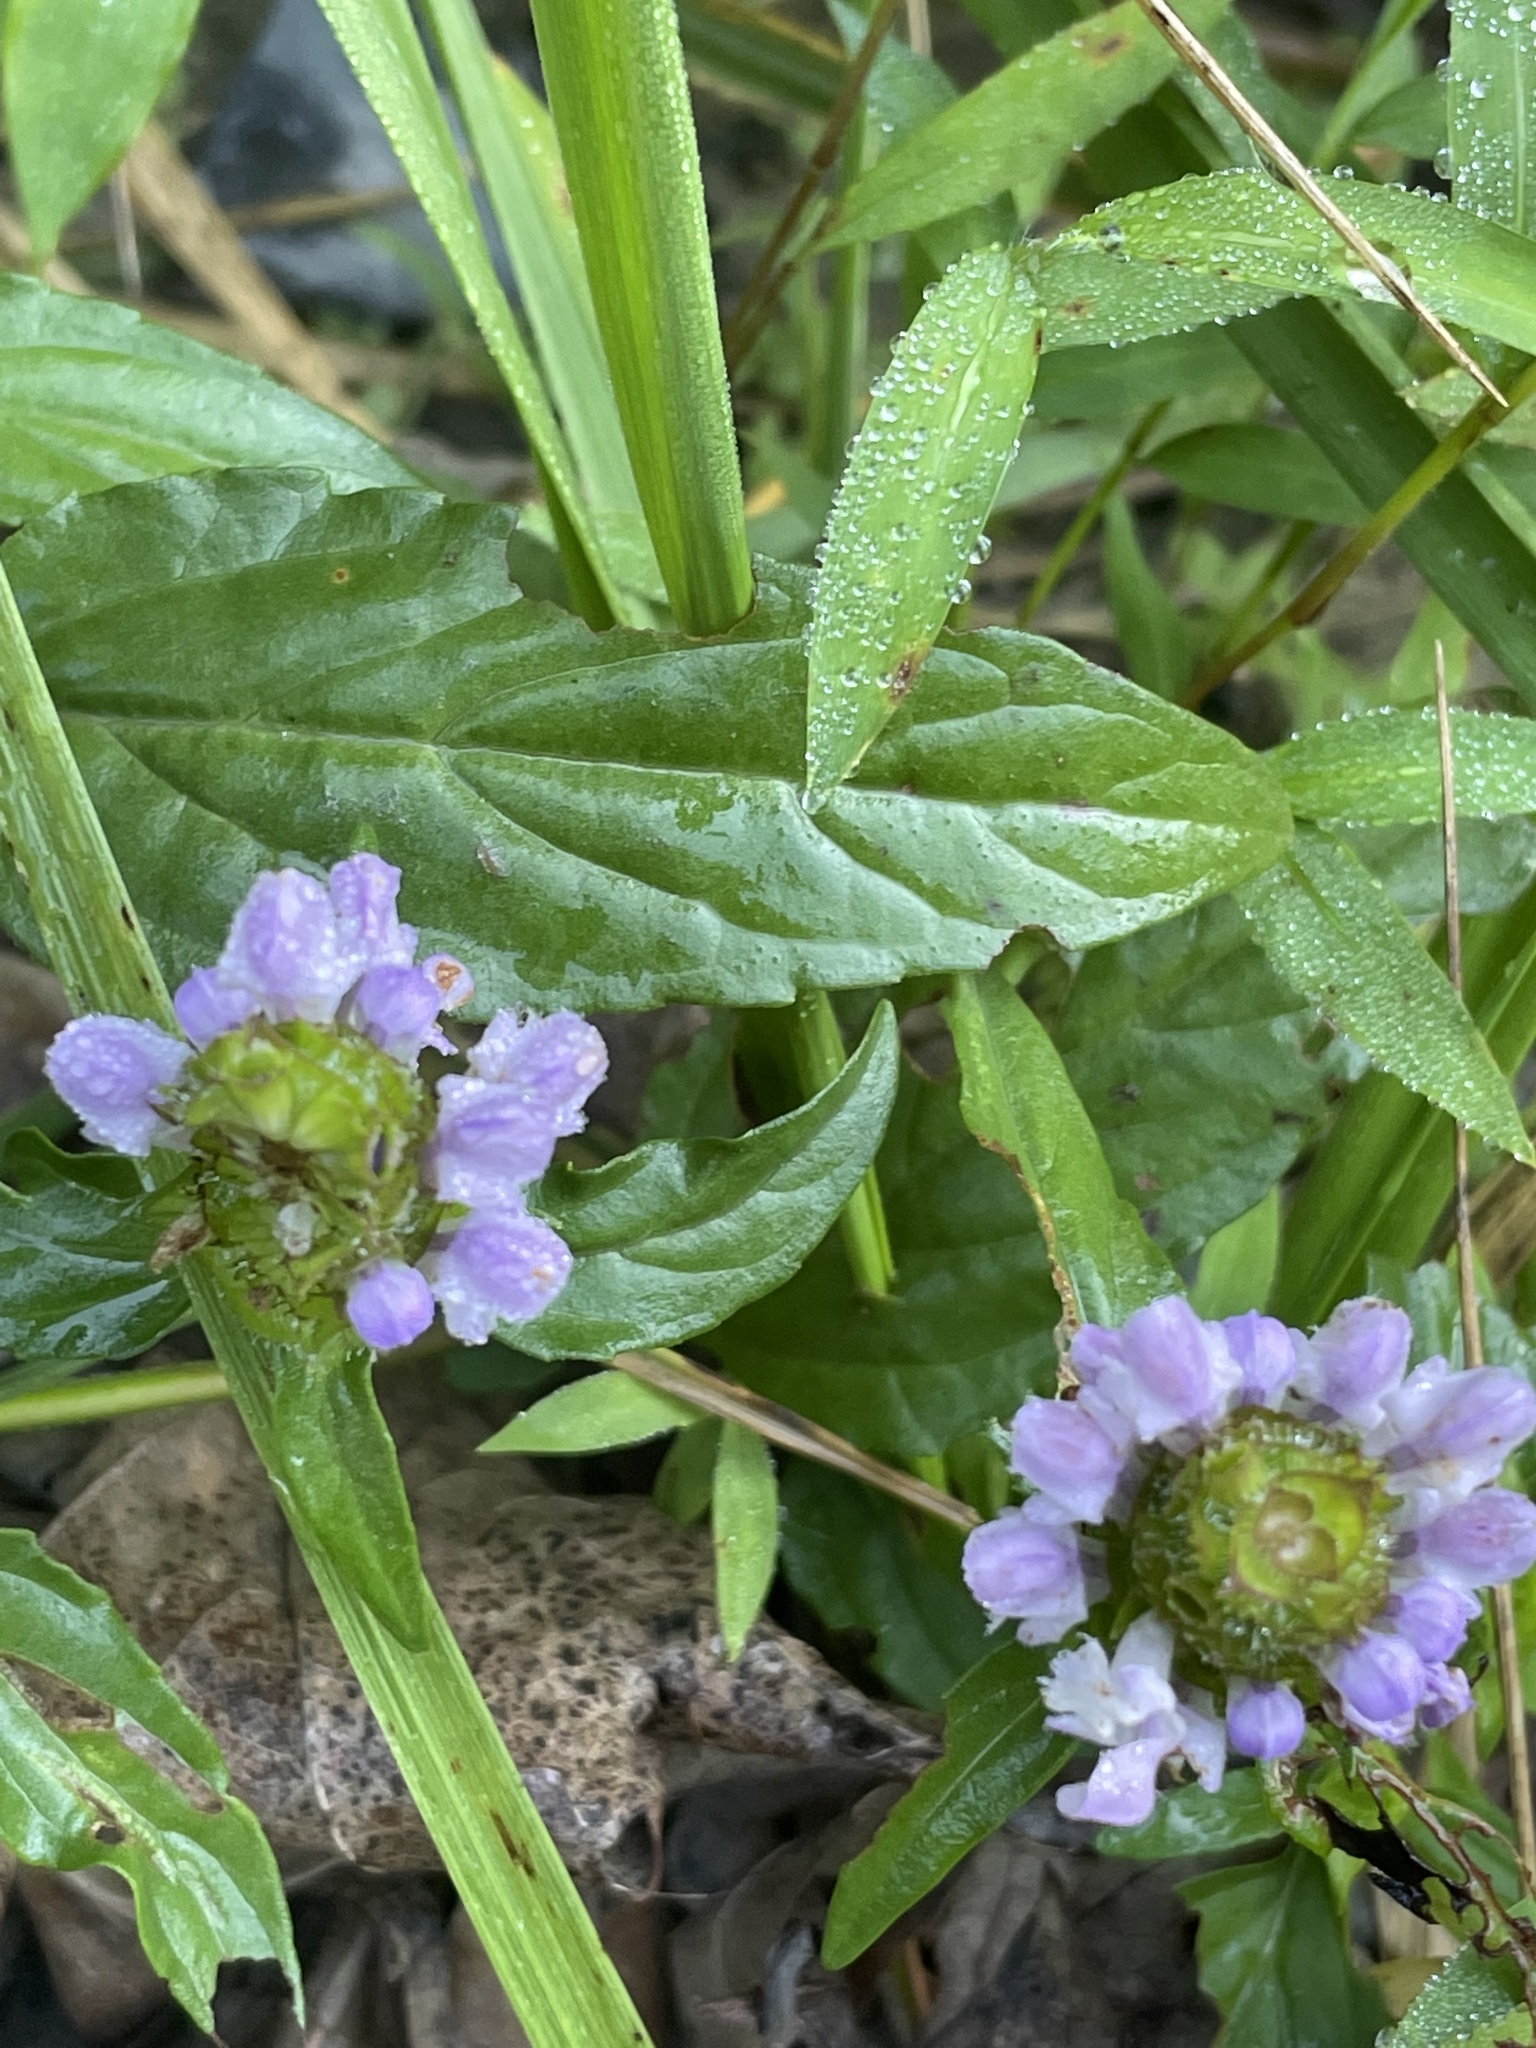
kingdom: Plantae
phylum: Tracheophyta
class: Magnoliopsida
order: Lamiales
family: Lamiaceae
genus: Prunella
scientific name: Prunella vulgaris
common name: Heal-all
